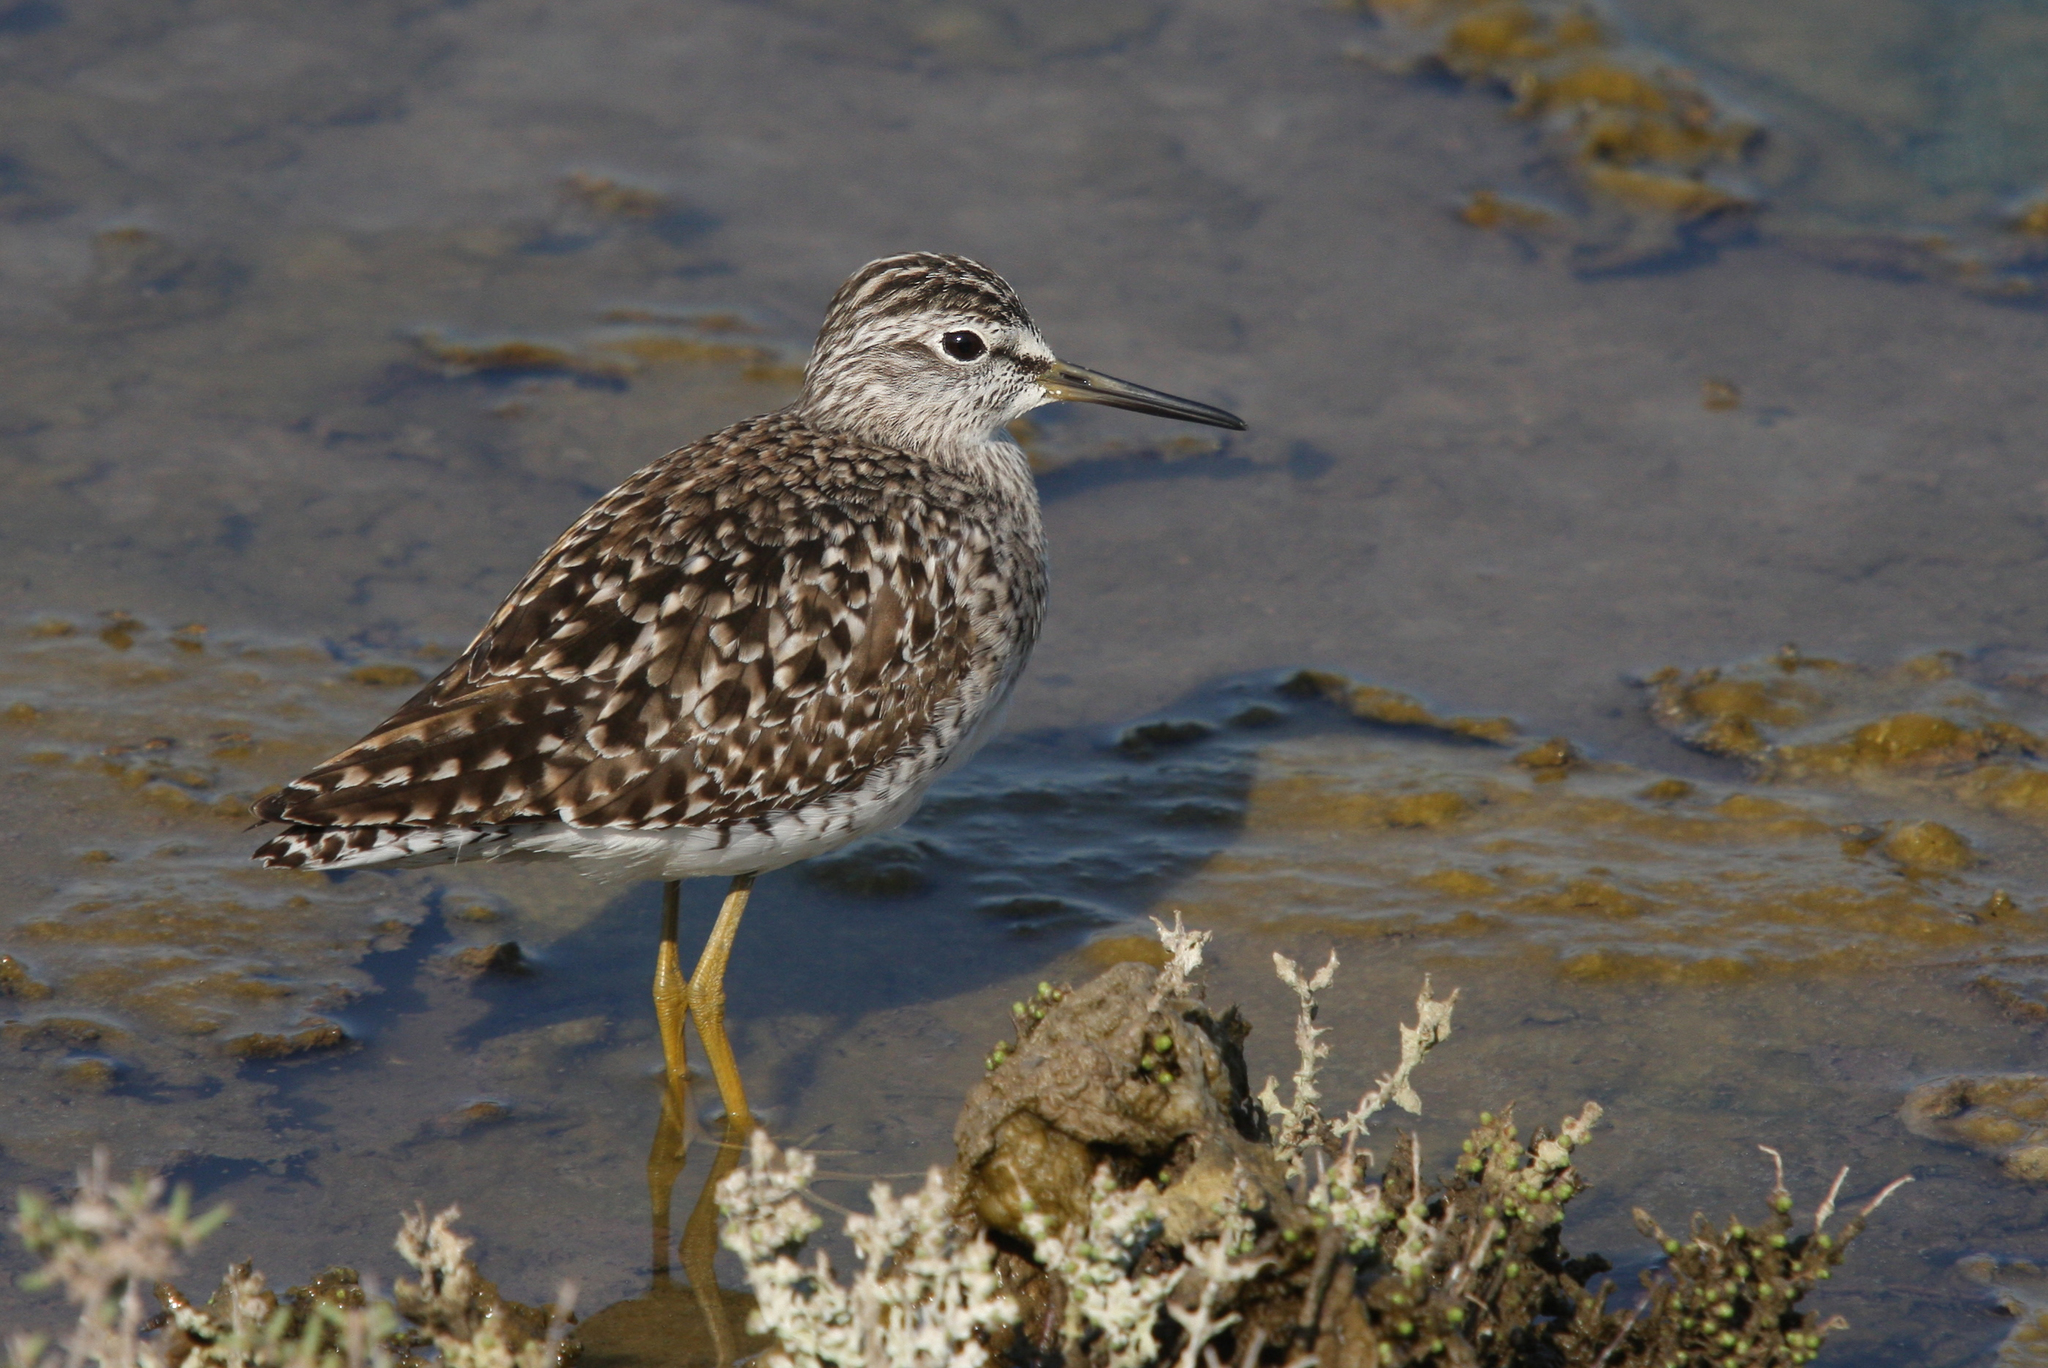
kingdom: Animalia
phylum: Chordata
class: Aves
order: Charadriiformes
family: Scolopacidae
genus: Tringa
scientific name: Tringa glareola
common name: Wood sandpiper
